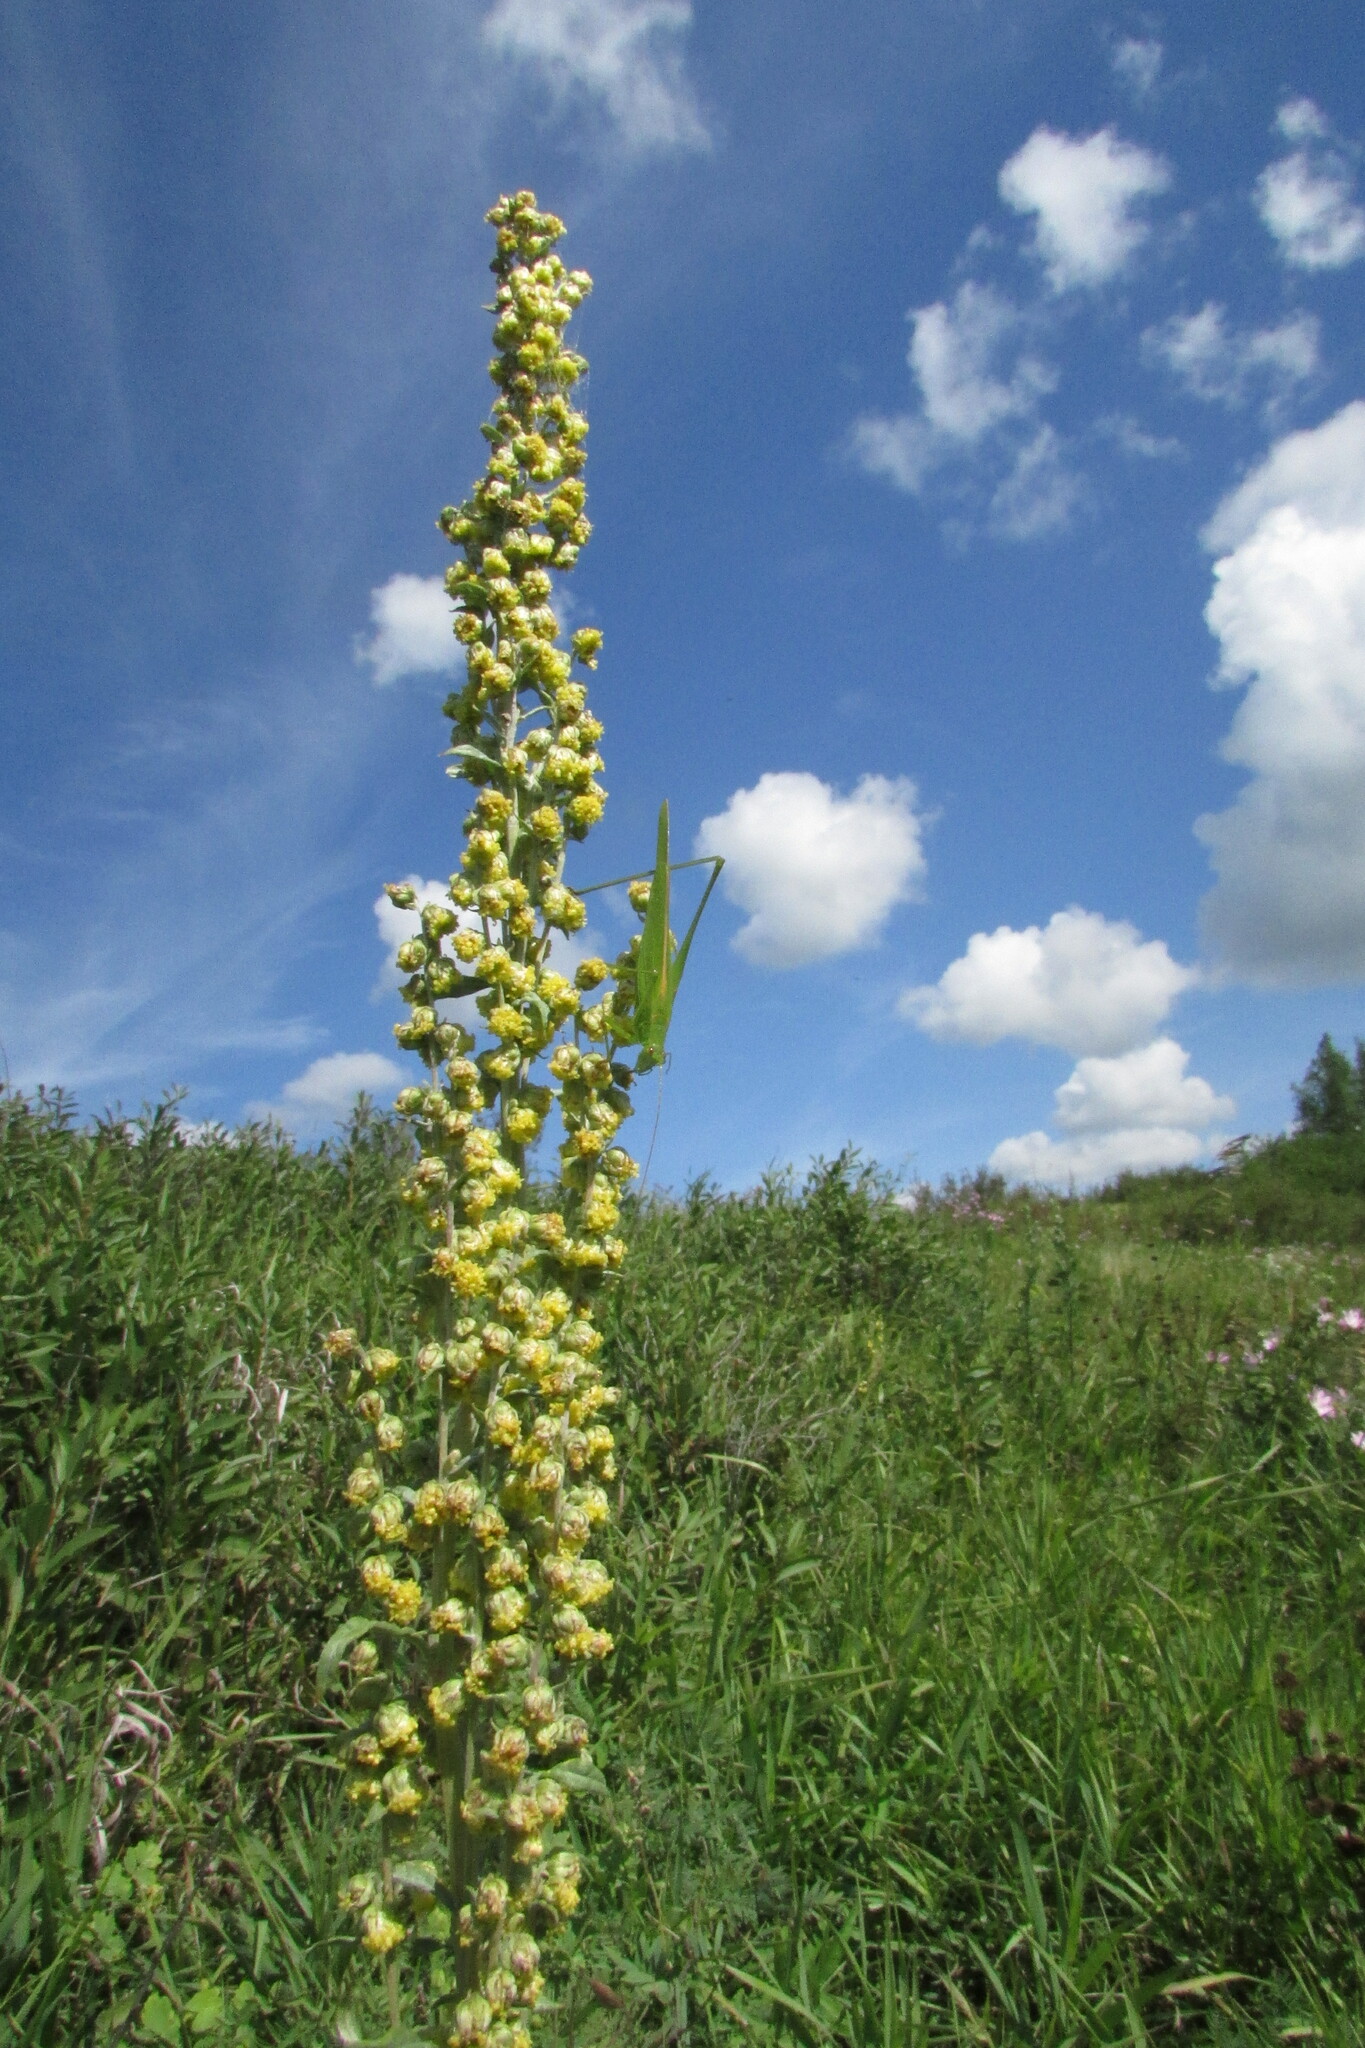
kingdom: Plantae
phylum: Tracheophyta
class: Magnoliopsida
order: Asterales
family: Asteraceae
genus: Artemisia
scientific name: Artemisia armeniaca
